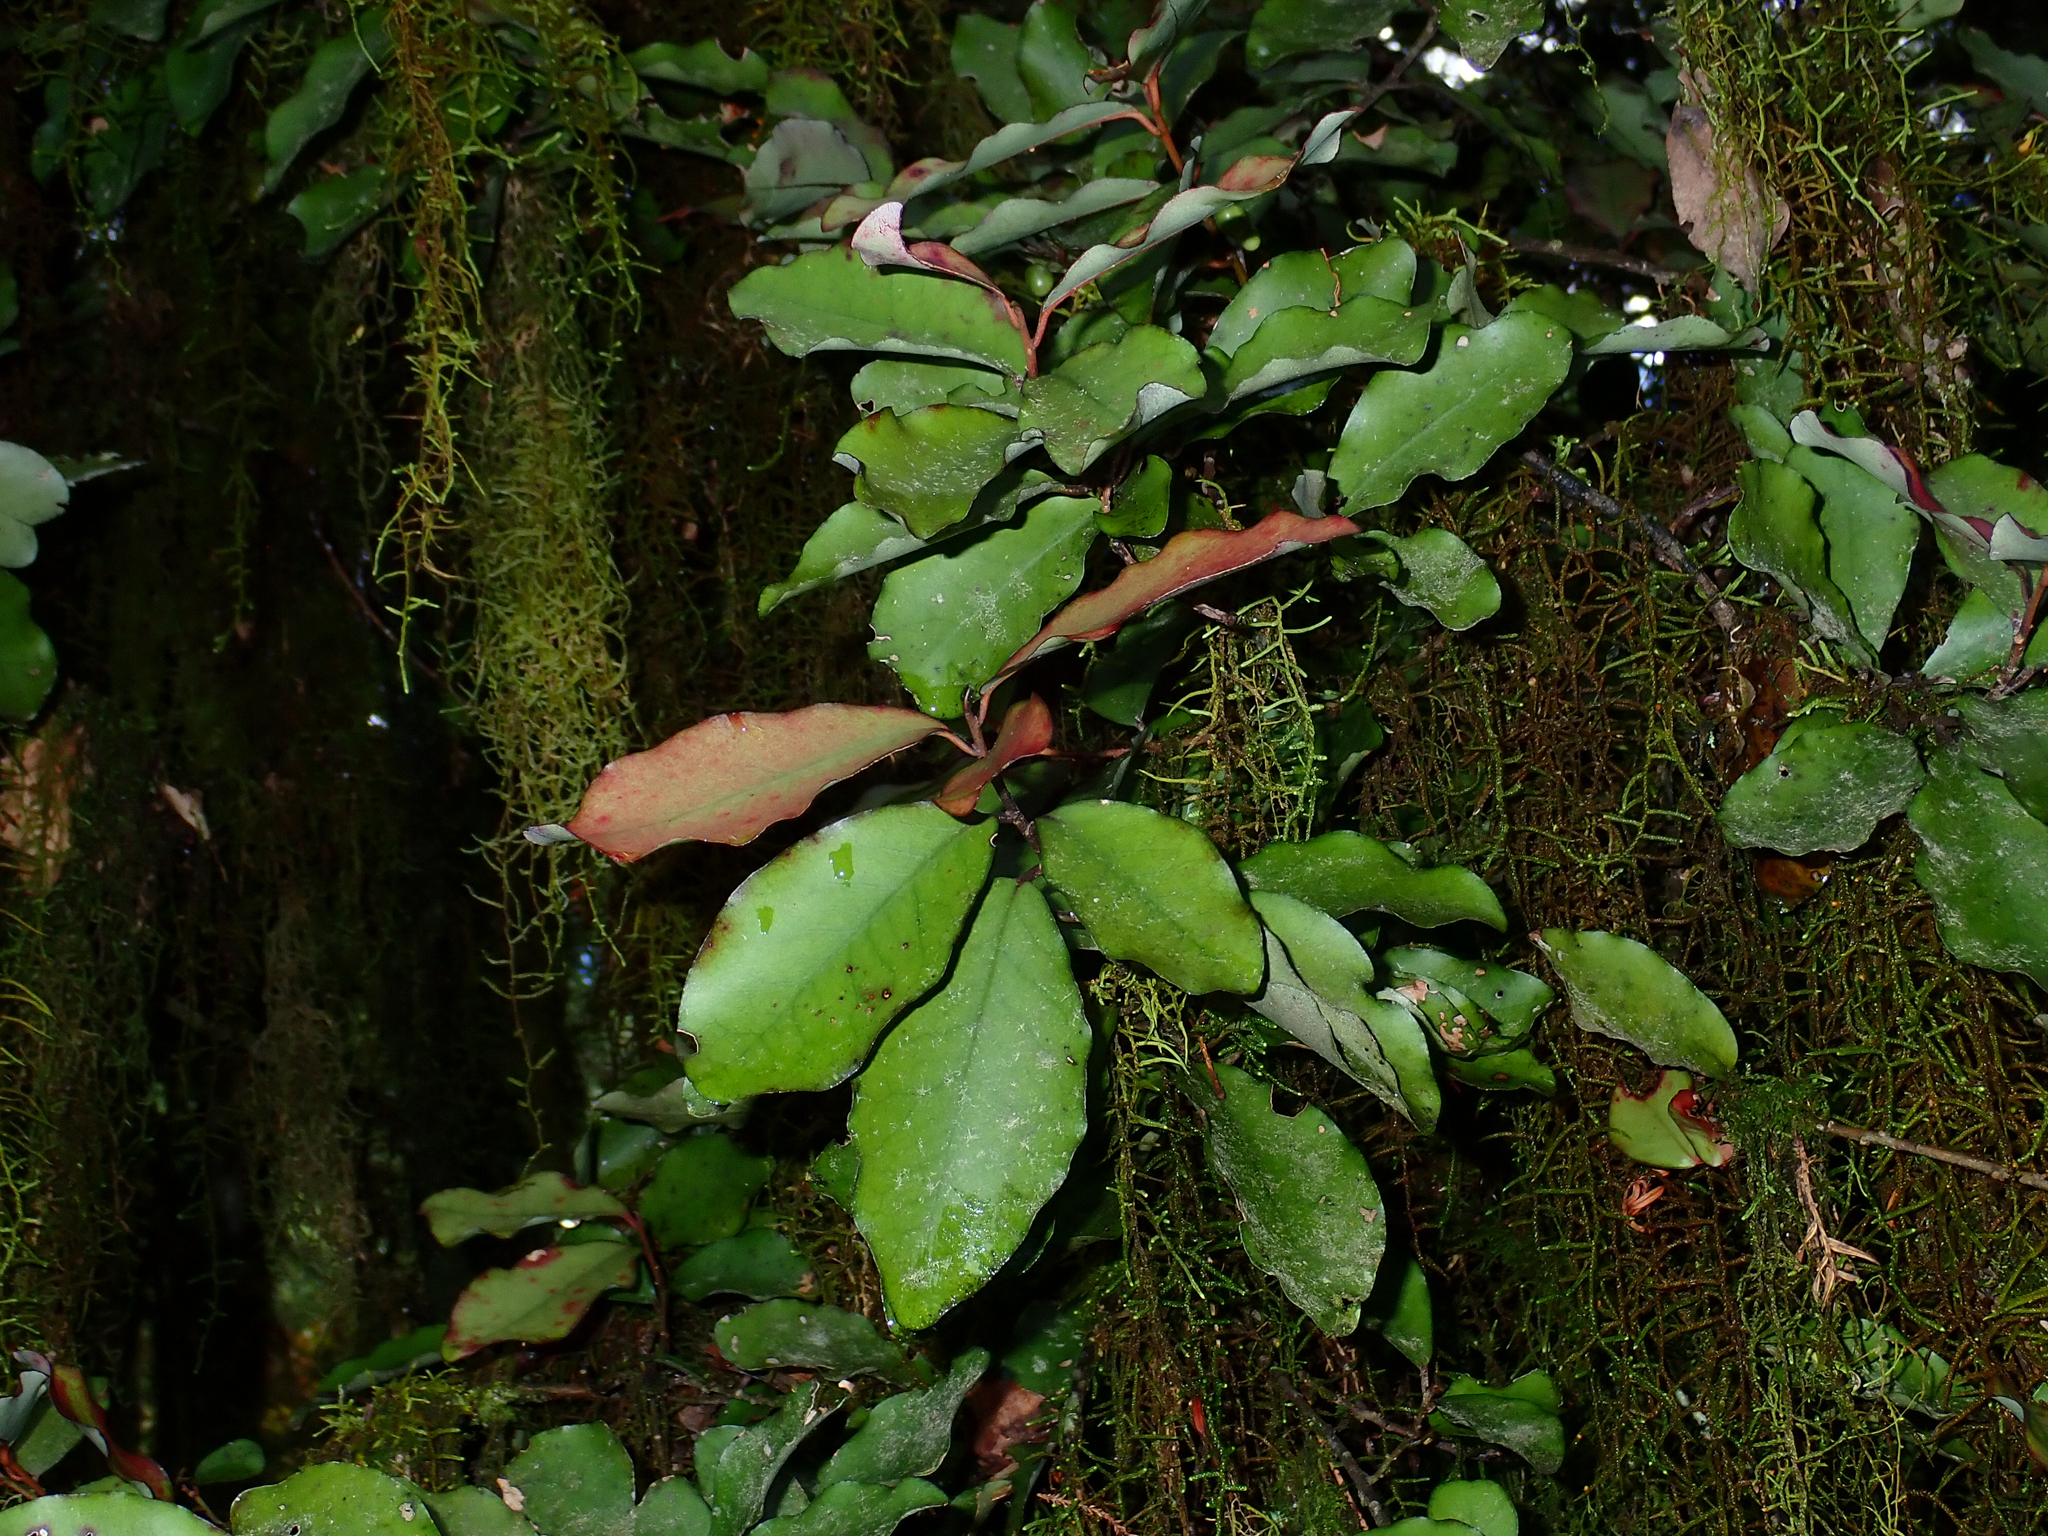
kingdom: Plantae
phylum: Tracheophyta
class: Magnoliopsida
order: Canellales
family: Winteraceae
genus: Pseudowintera
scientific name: Pseudowintera colorata
